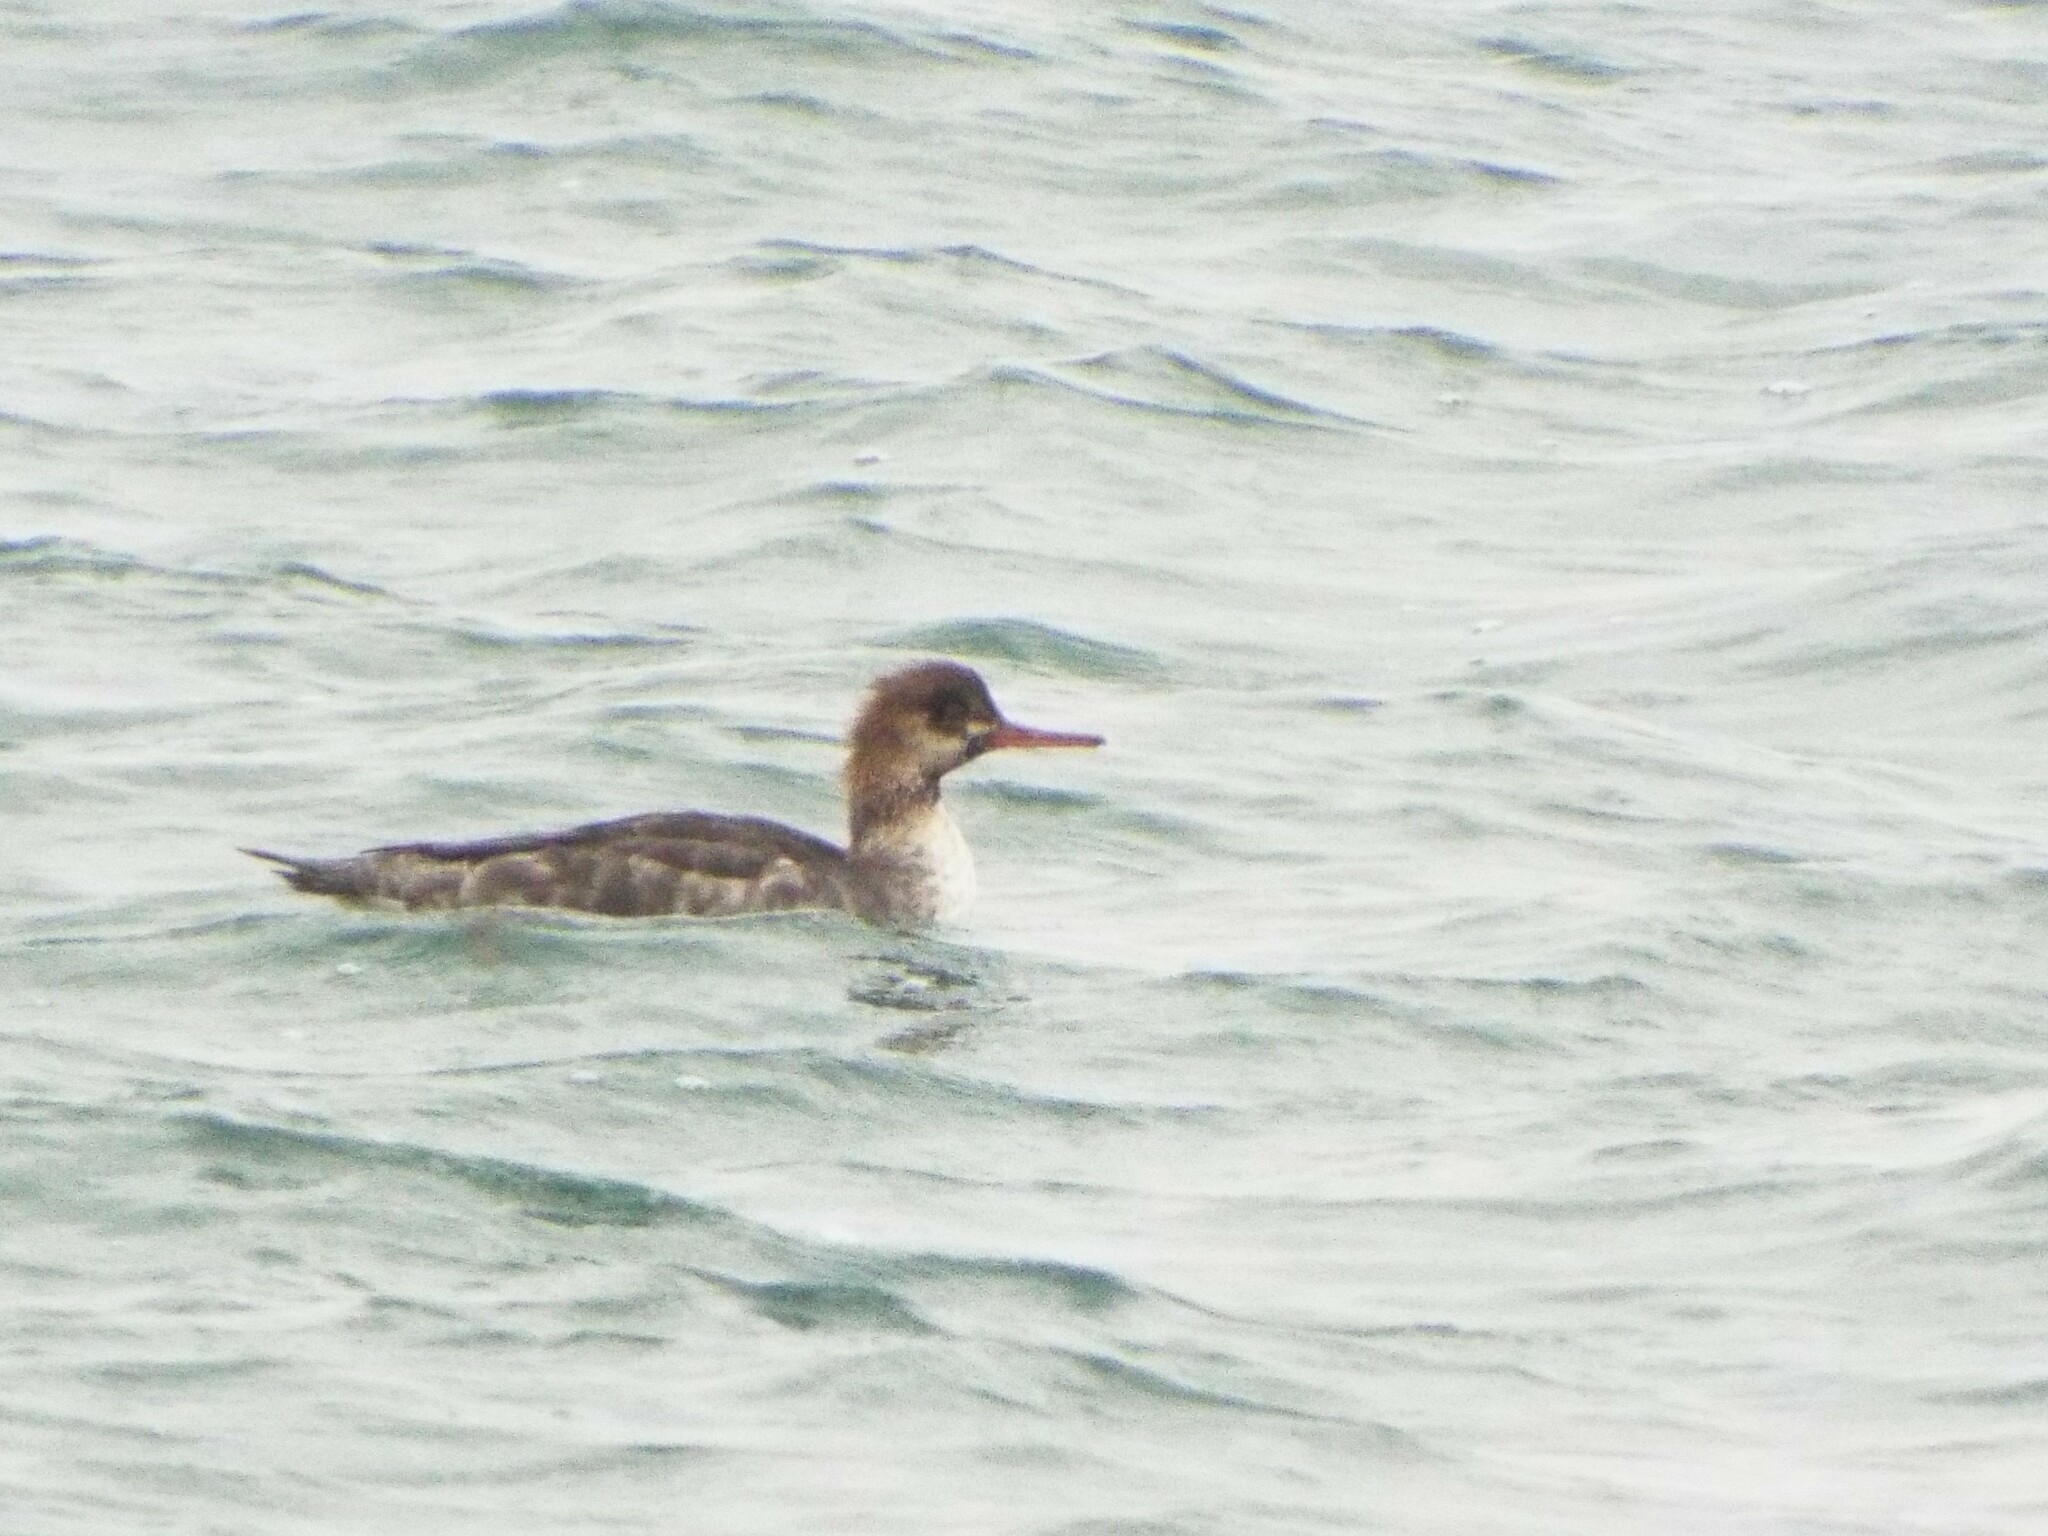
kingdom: Animalia
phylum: Chordata
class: Aves
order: Anseriformes
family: Anatidae
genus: Mergus
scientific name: Mergus serrator
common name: Red-breasted merganser
